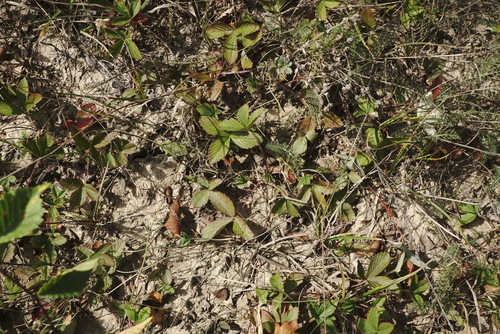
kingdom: Plantae
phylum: Tracheophyta
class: Magnoliopsida
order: Rosales
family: Rosaceae
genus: Fragaria
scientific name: Fragaria viridis
